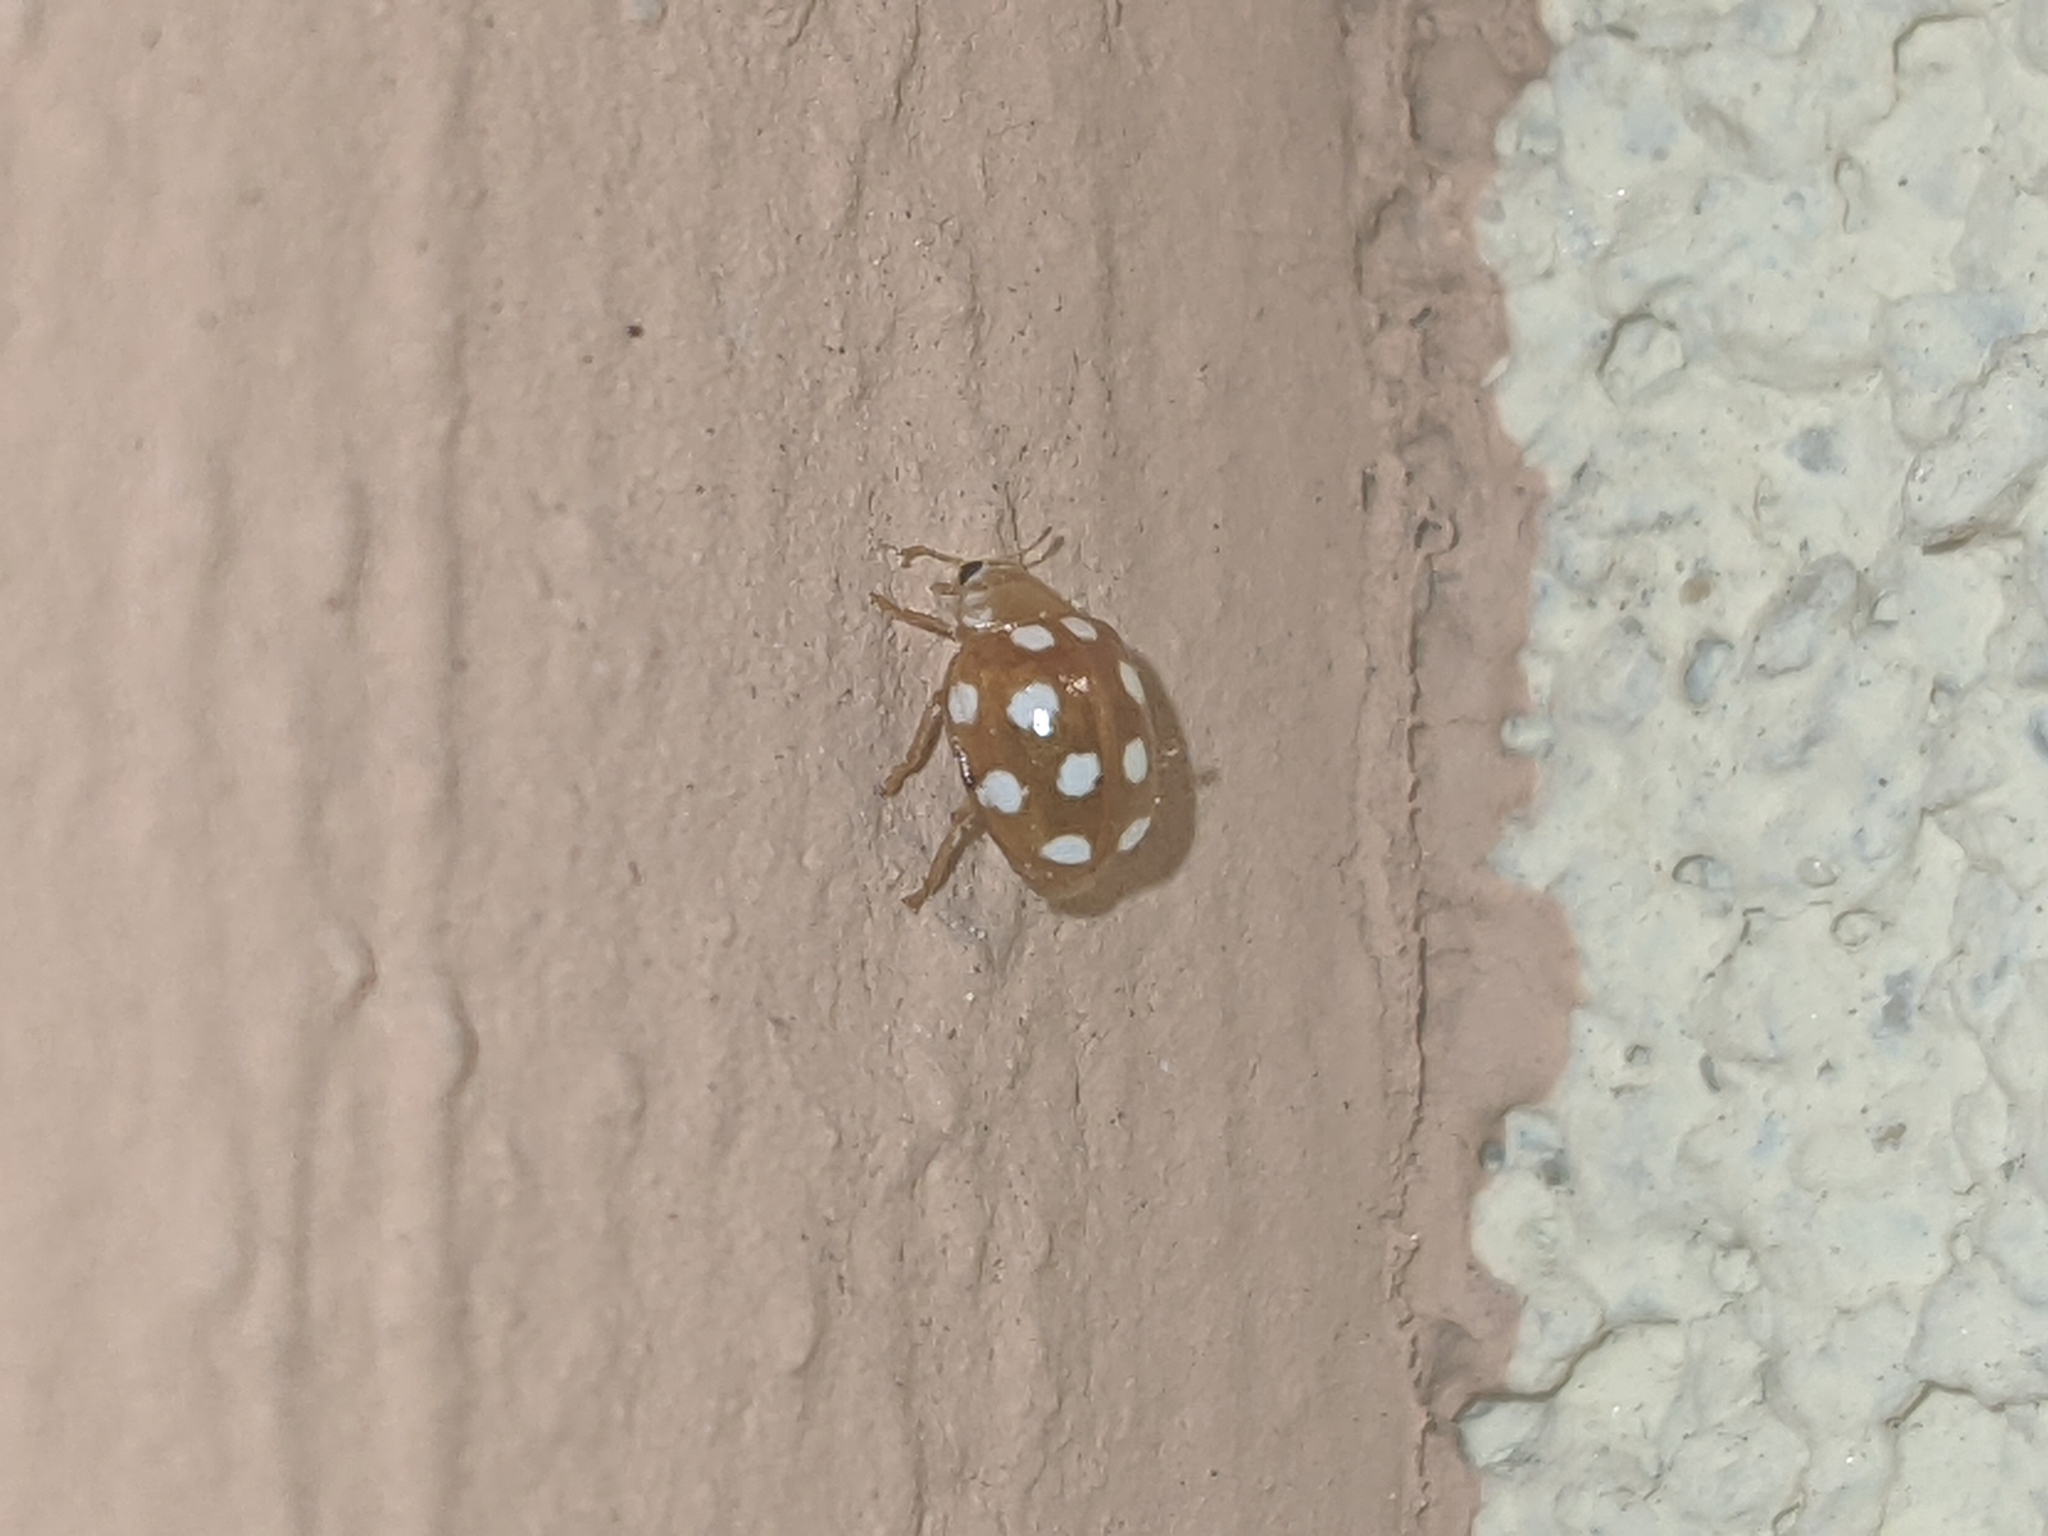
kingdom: Animalia
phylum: Arthropoda
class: Insecta
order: Coleoptera
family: Coccinellidae
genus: Vibidia
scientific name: Vibidia duodecimguttata
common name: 12-spot ladybird
